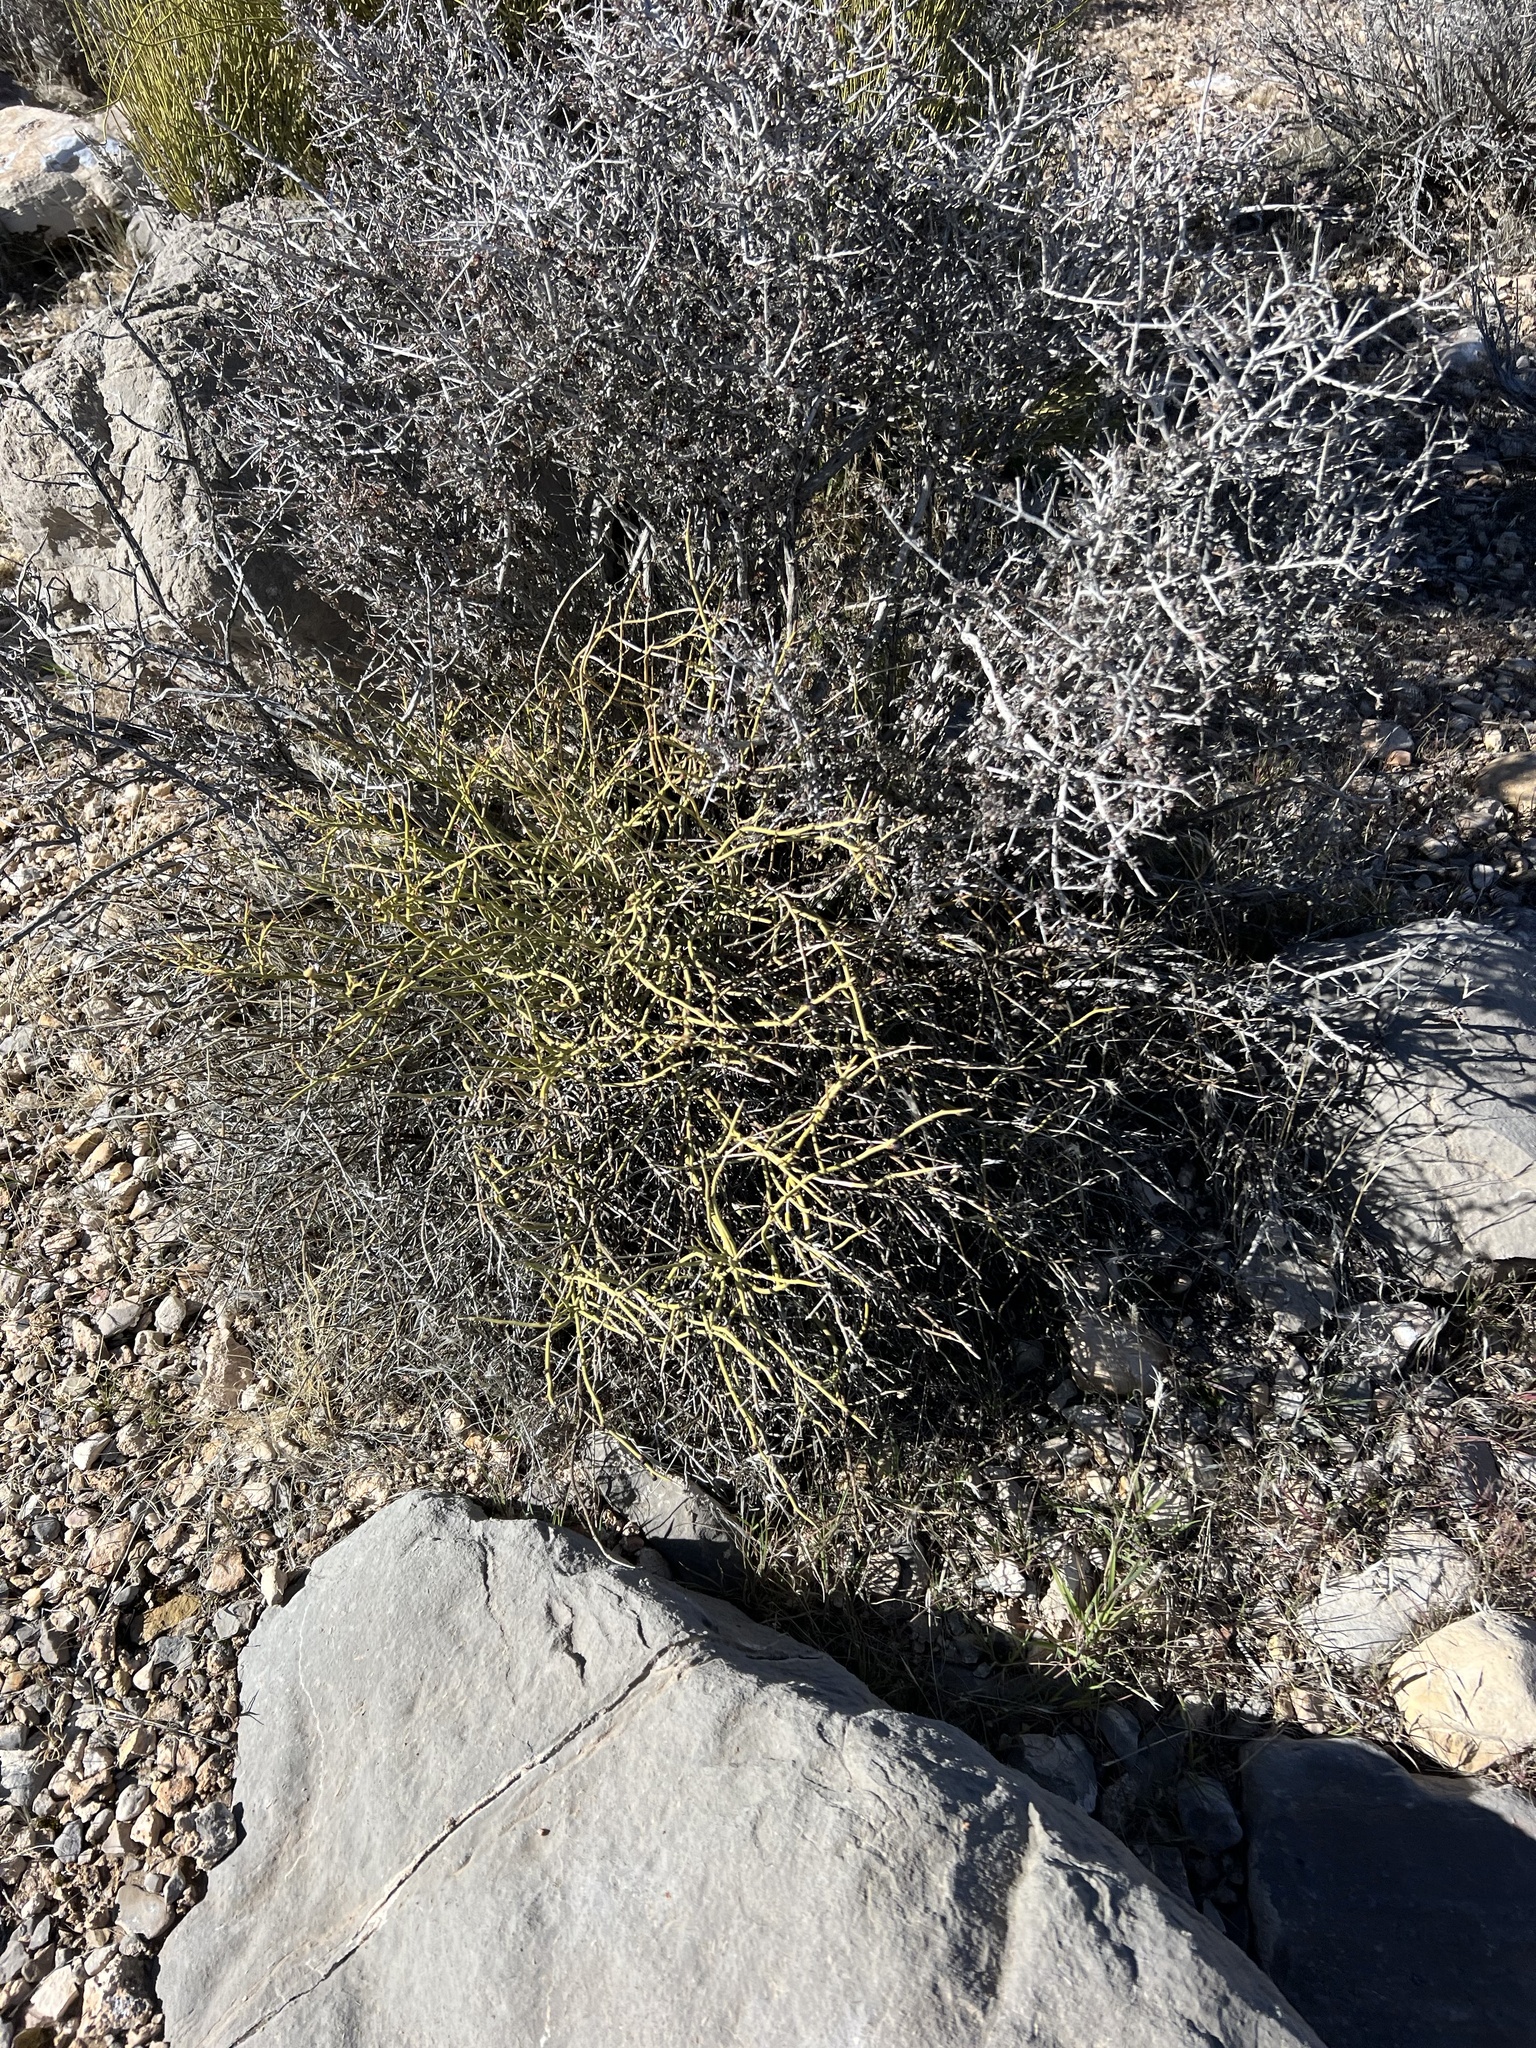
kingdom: Plantae
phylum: Tracheophyta
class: Magnoliopsida
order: Sapindales
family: Rutaceae
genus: Thamnosma
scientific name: Thamnosma montana
